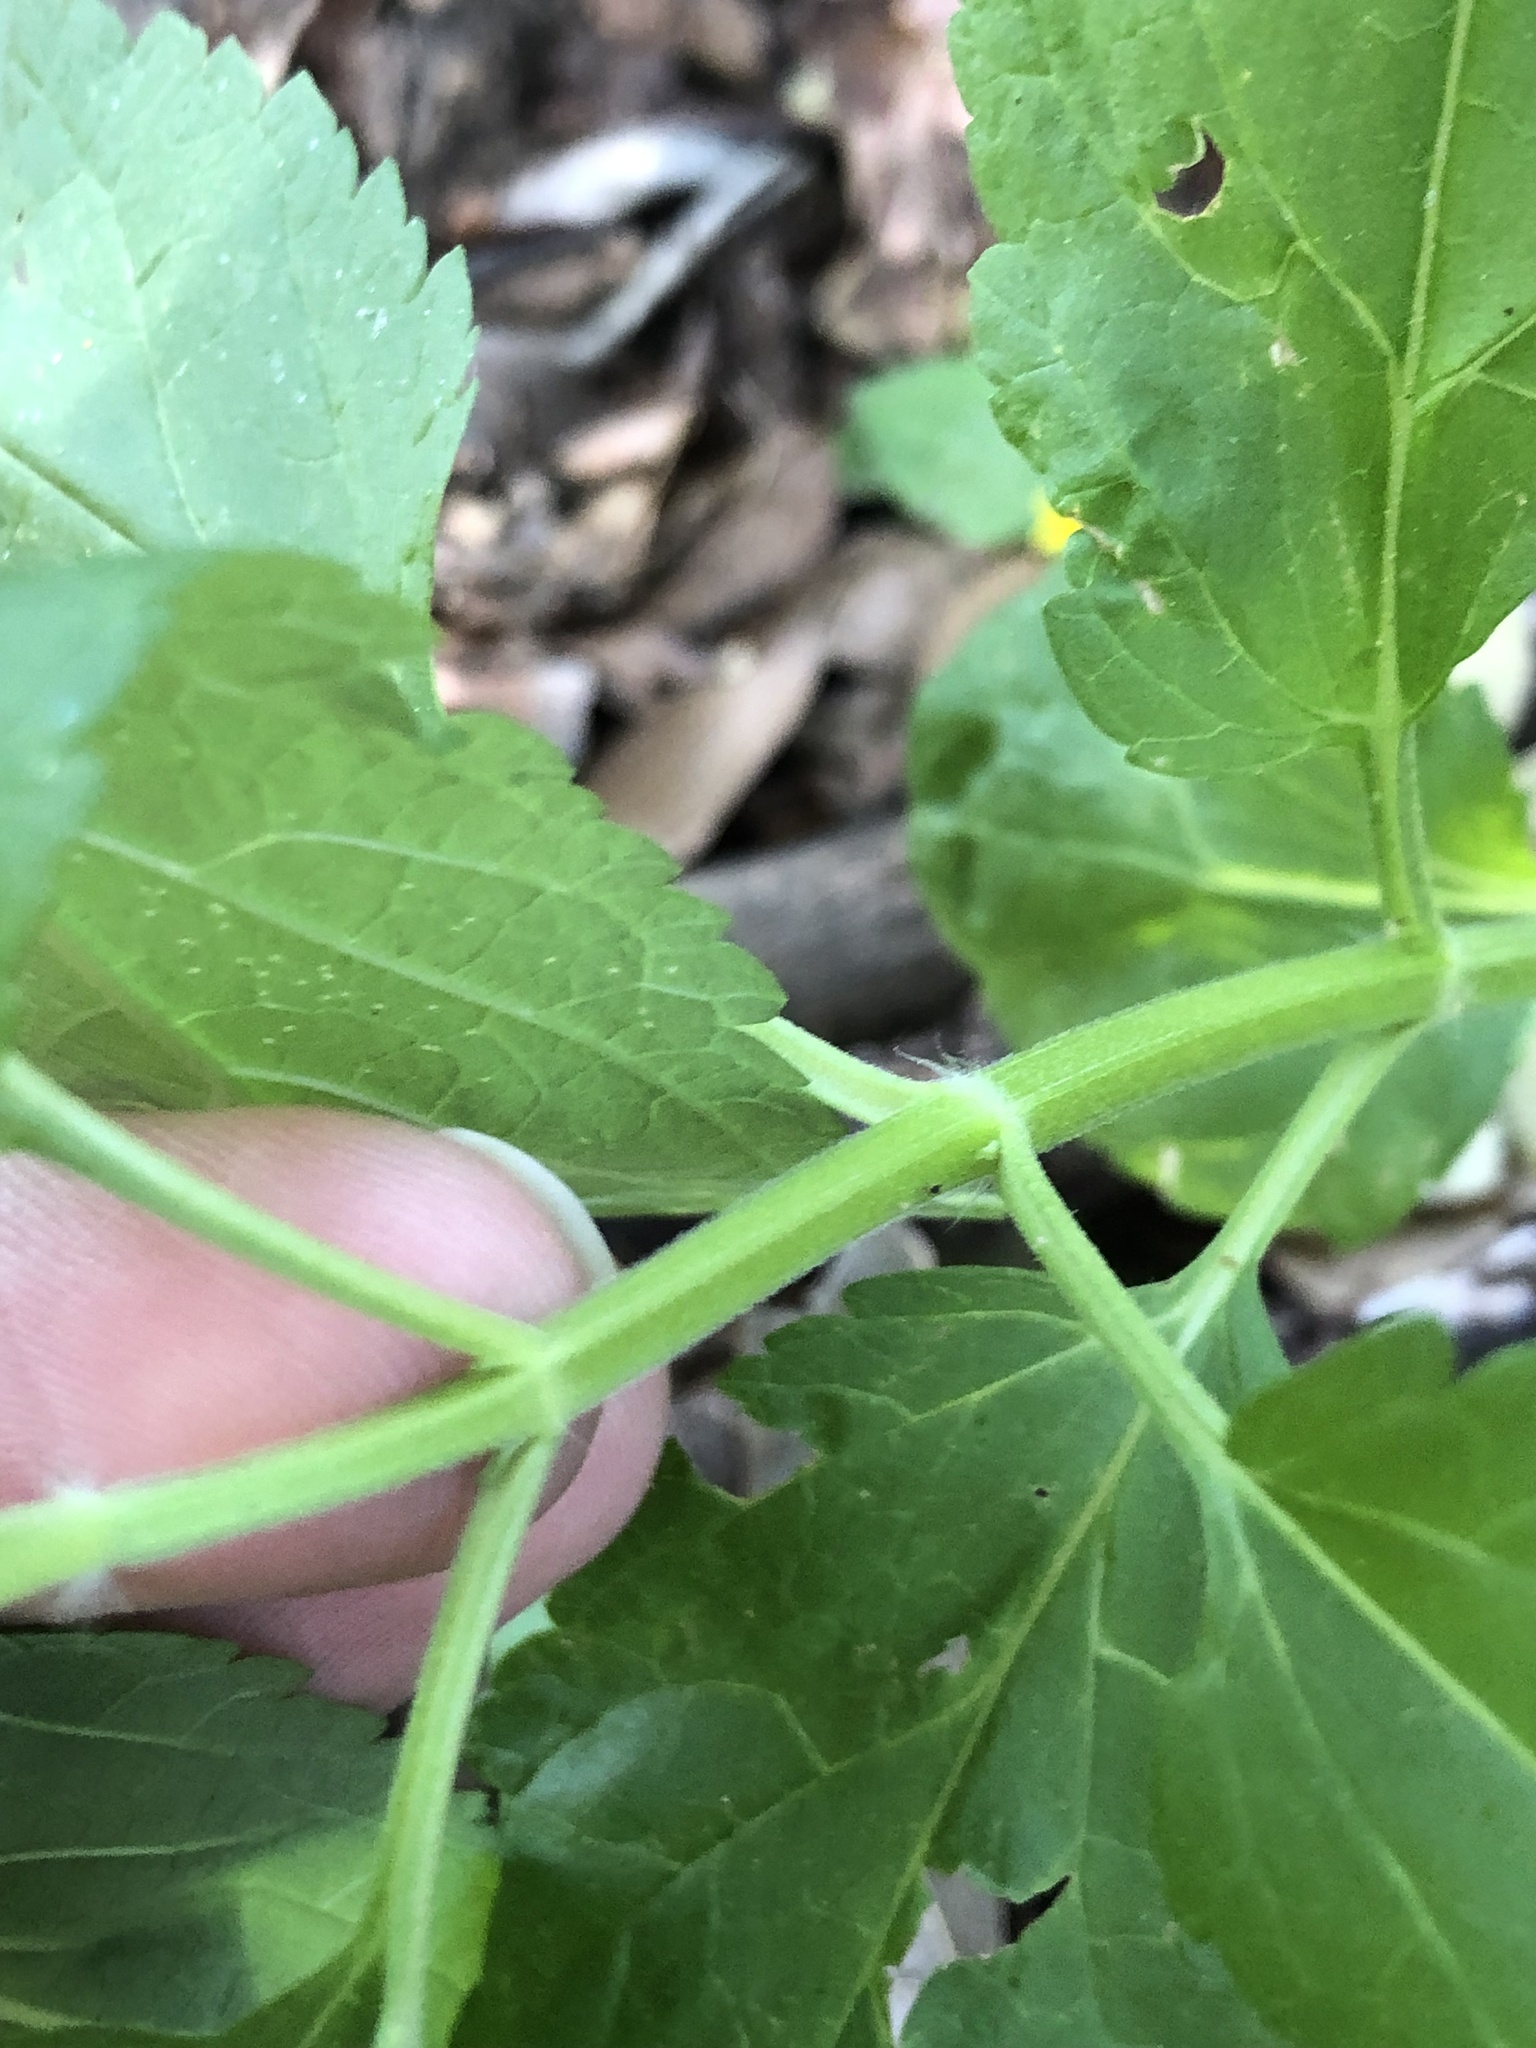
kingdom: Plantae
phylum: Tracheophyta
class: Magnoliopsida
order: Lamiales
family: Lamiaceae
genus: Teucrium
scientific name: Teucrium canadense
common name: American germander
